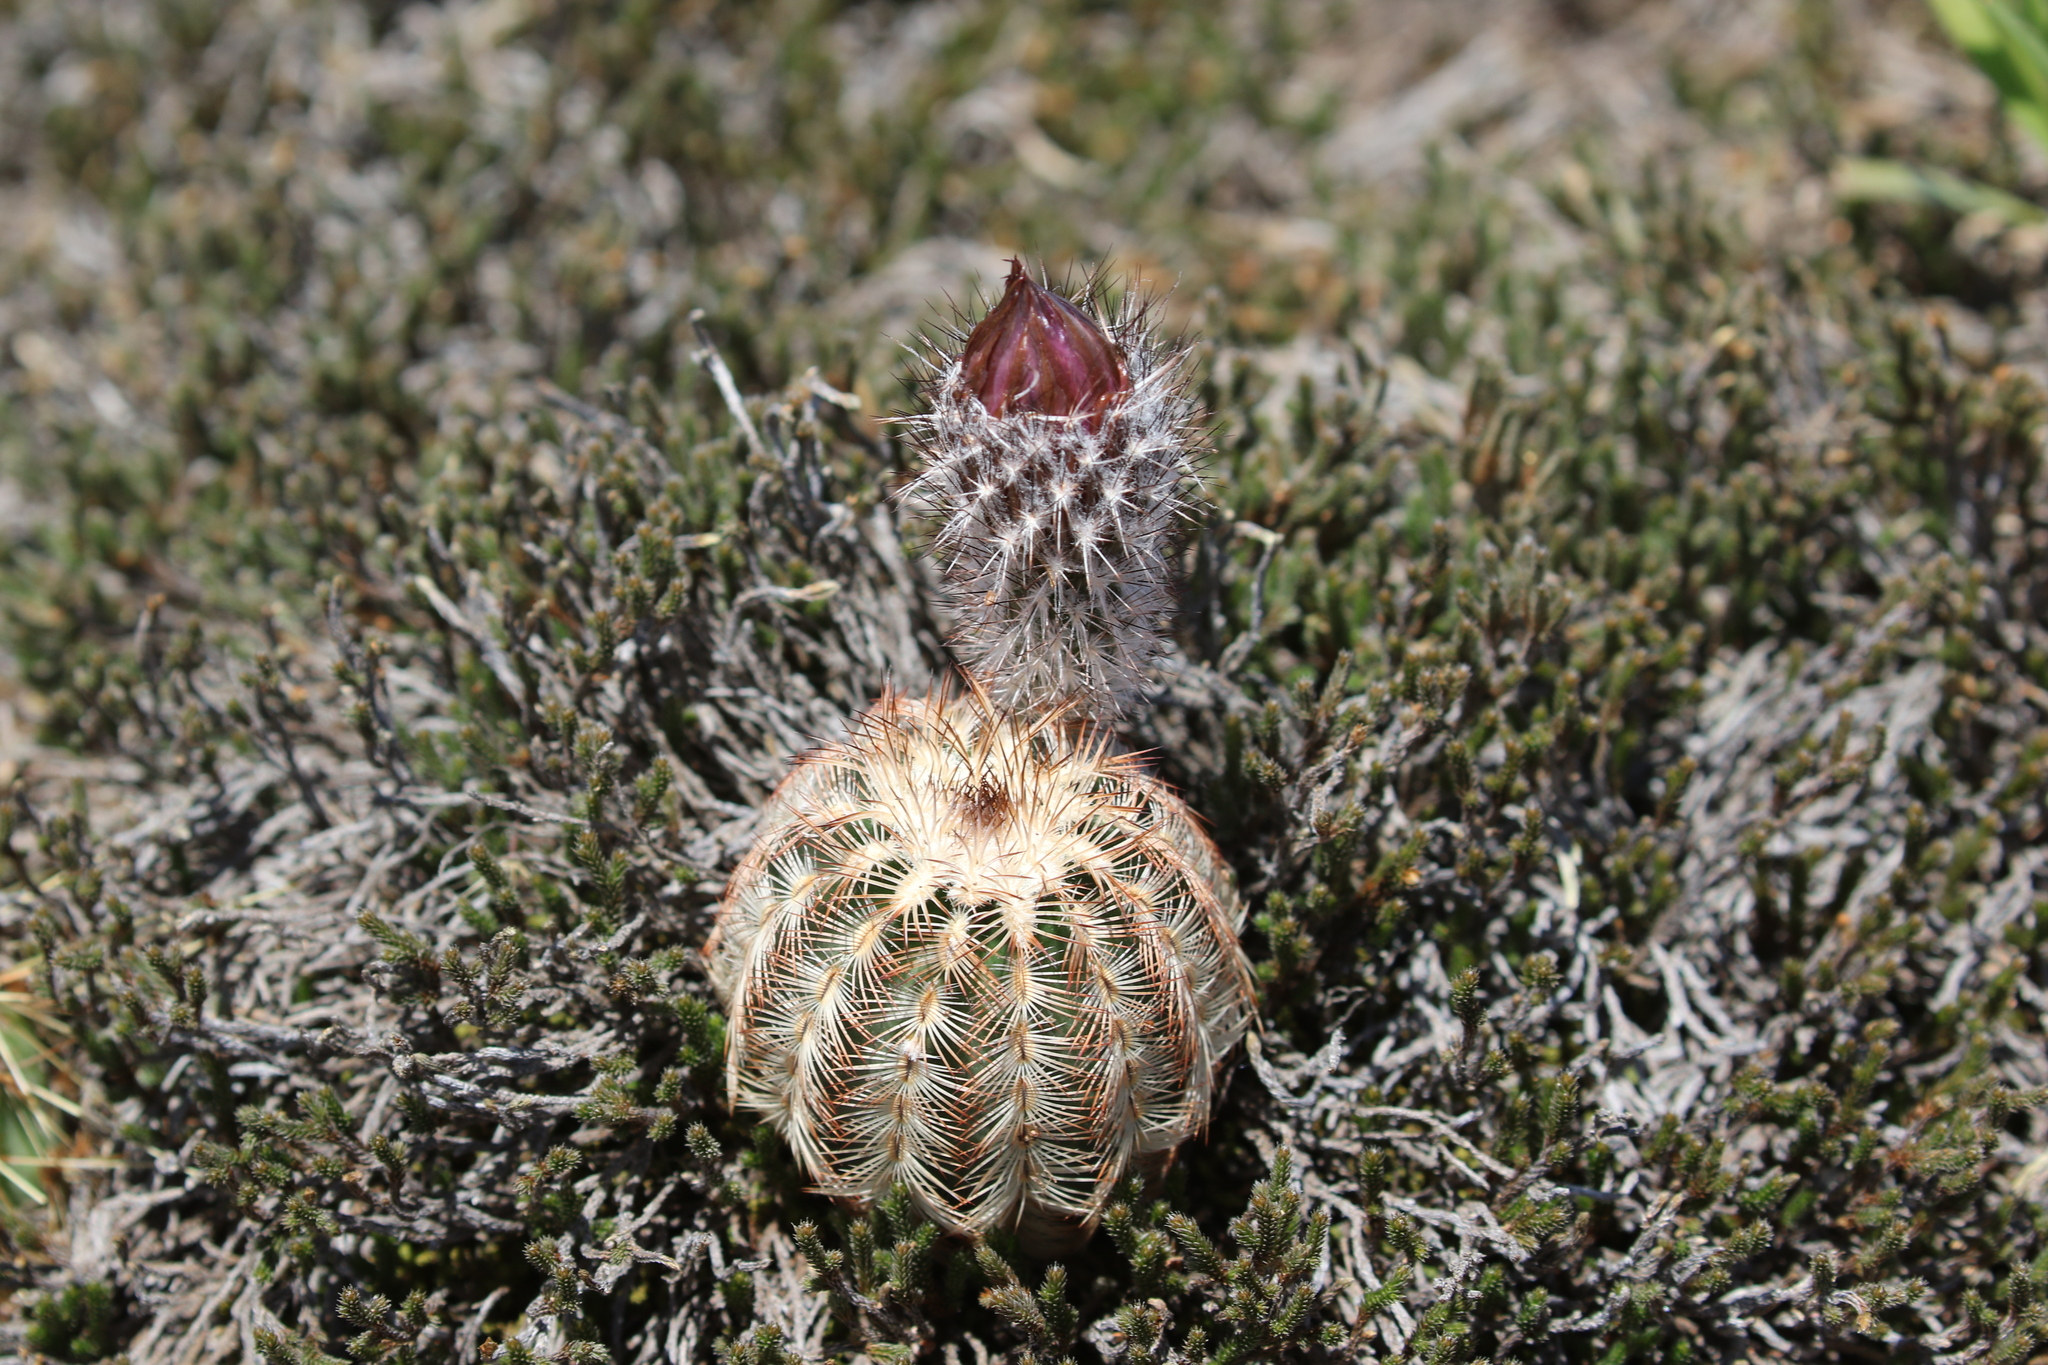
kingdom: Plantae
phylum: Tracheophyta
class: Magnoliopsida
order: Caryophyllales
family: Cactaceae
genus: Echinocereus
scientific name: Echinocereus reichenbachii
